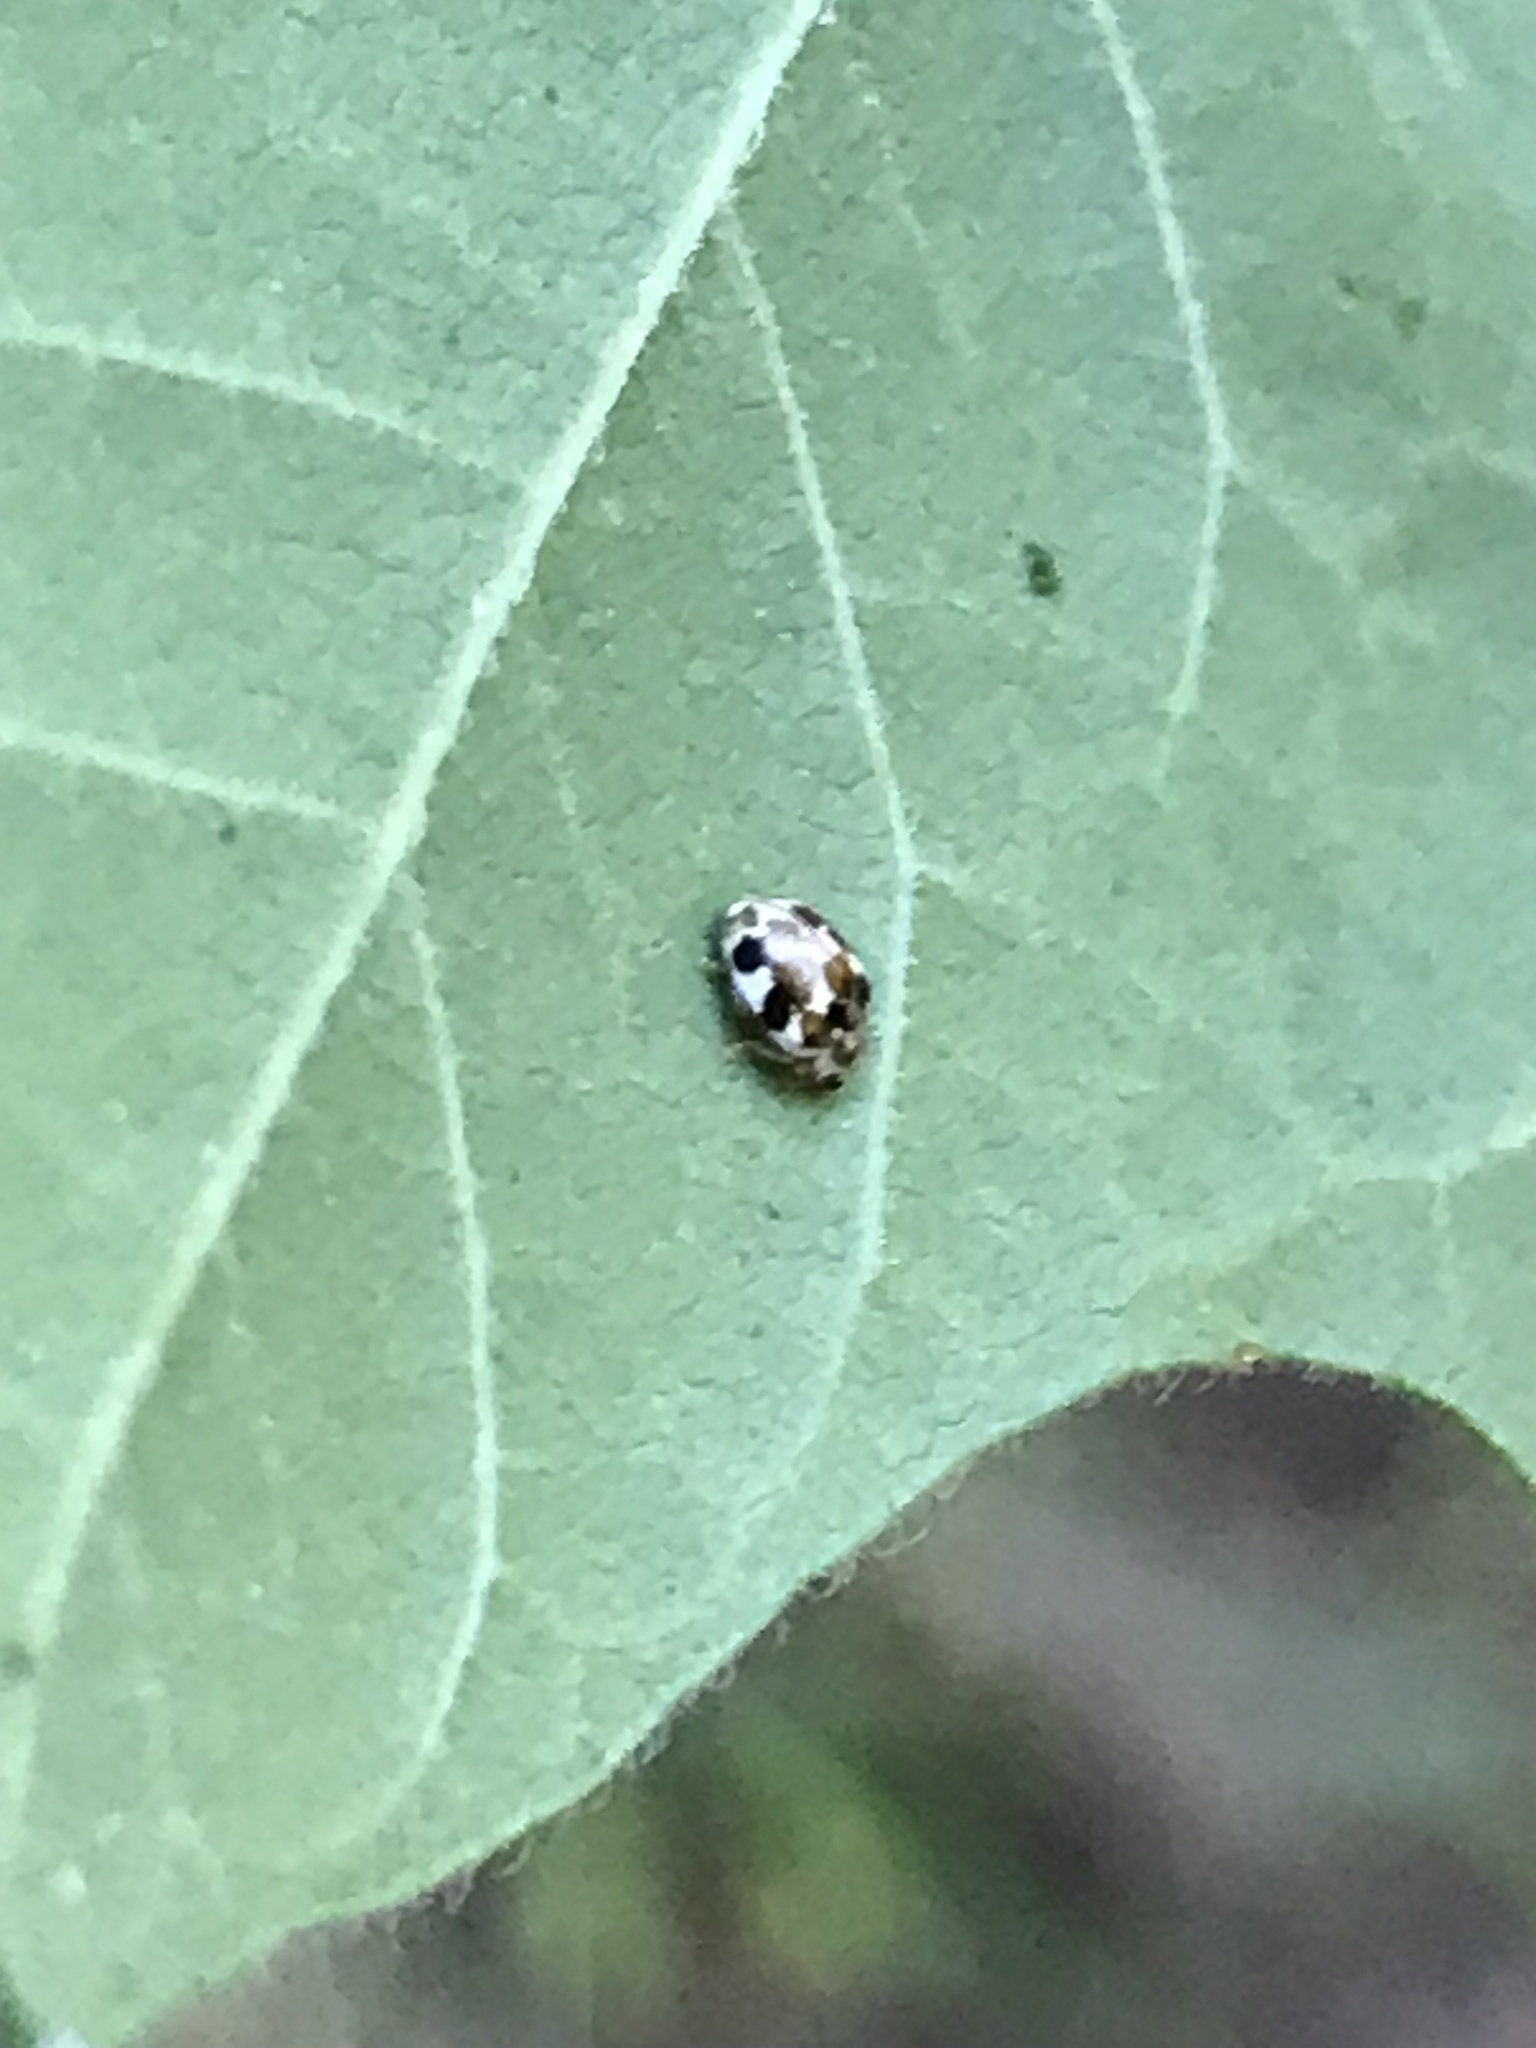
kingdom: Animalia
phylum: Arthropoda
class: Insecta
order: Coleoptera
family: Coccinellidae
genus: Psyllobora
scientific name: Psyllobora vigintimaculata
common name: Ladybird beetle
